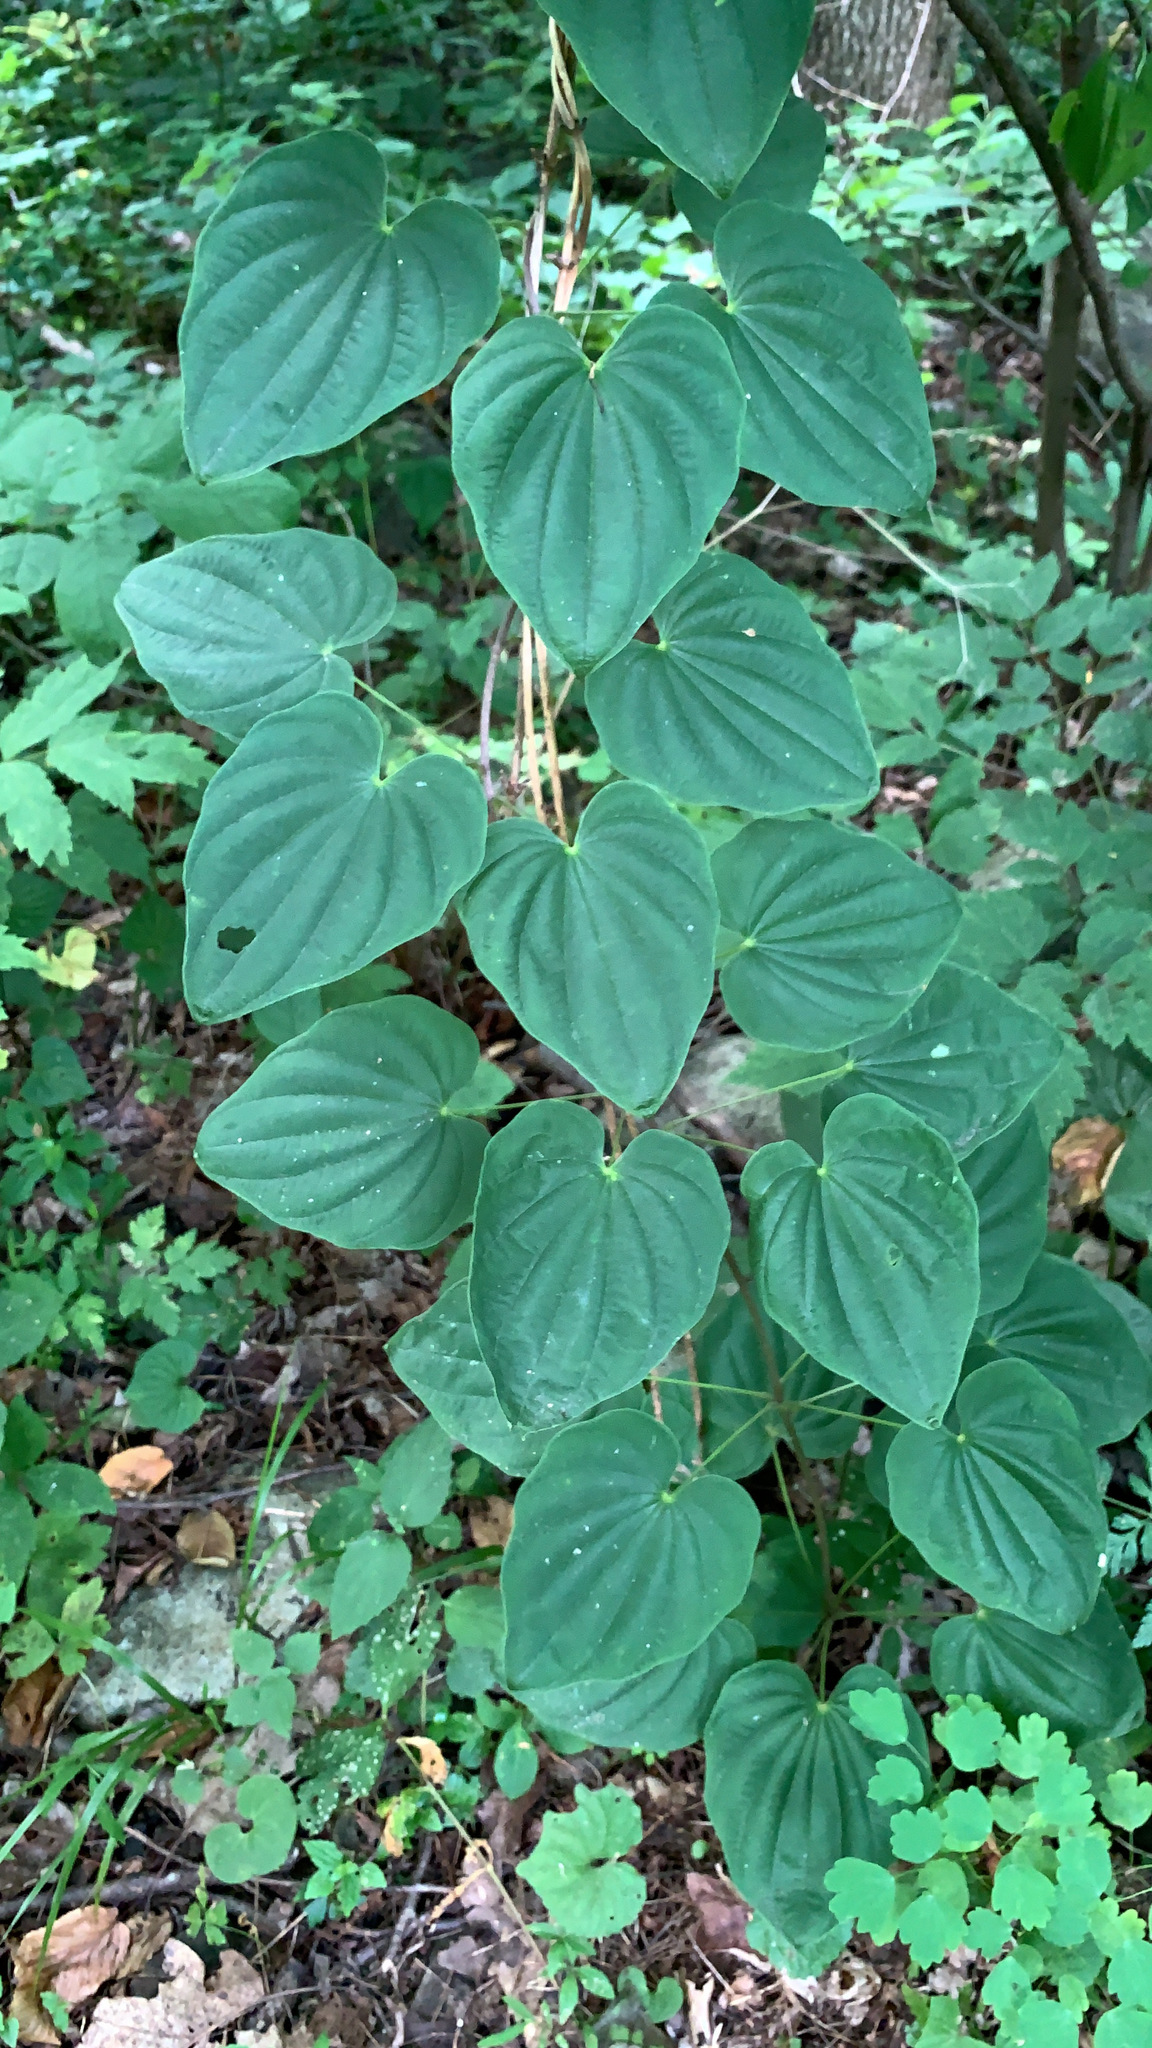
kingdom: Plantae
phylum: Tracheophyta
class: Liliopsida
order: Dioscoreales
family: Dioscoreaceae
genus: Dioscorea
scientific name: Dioscorea villosa
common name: Wild yam
